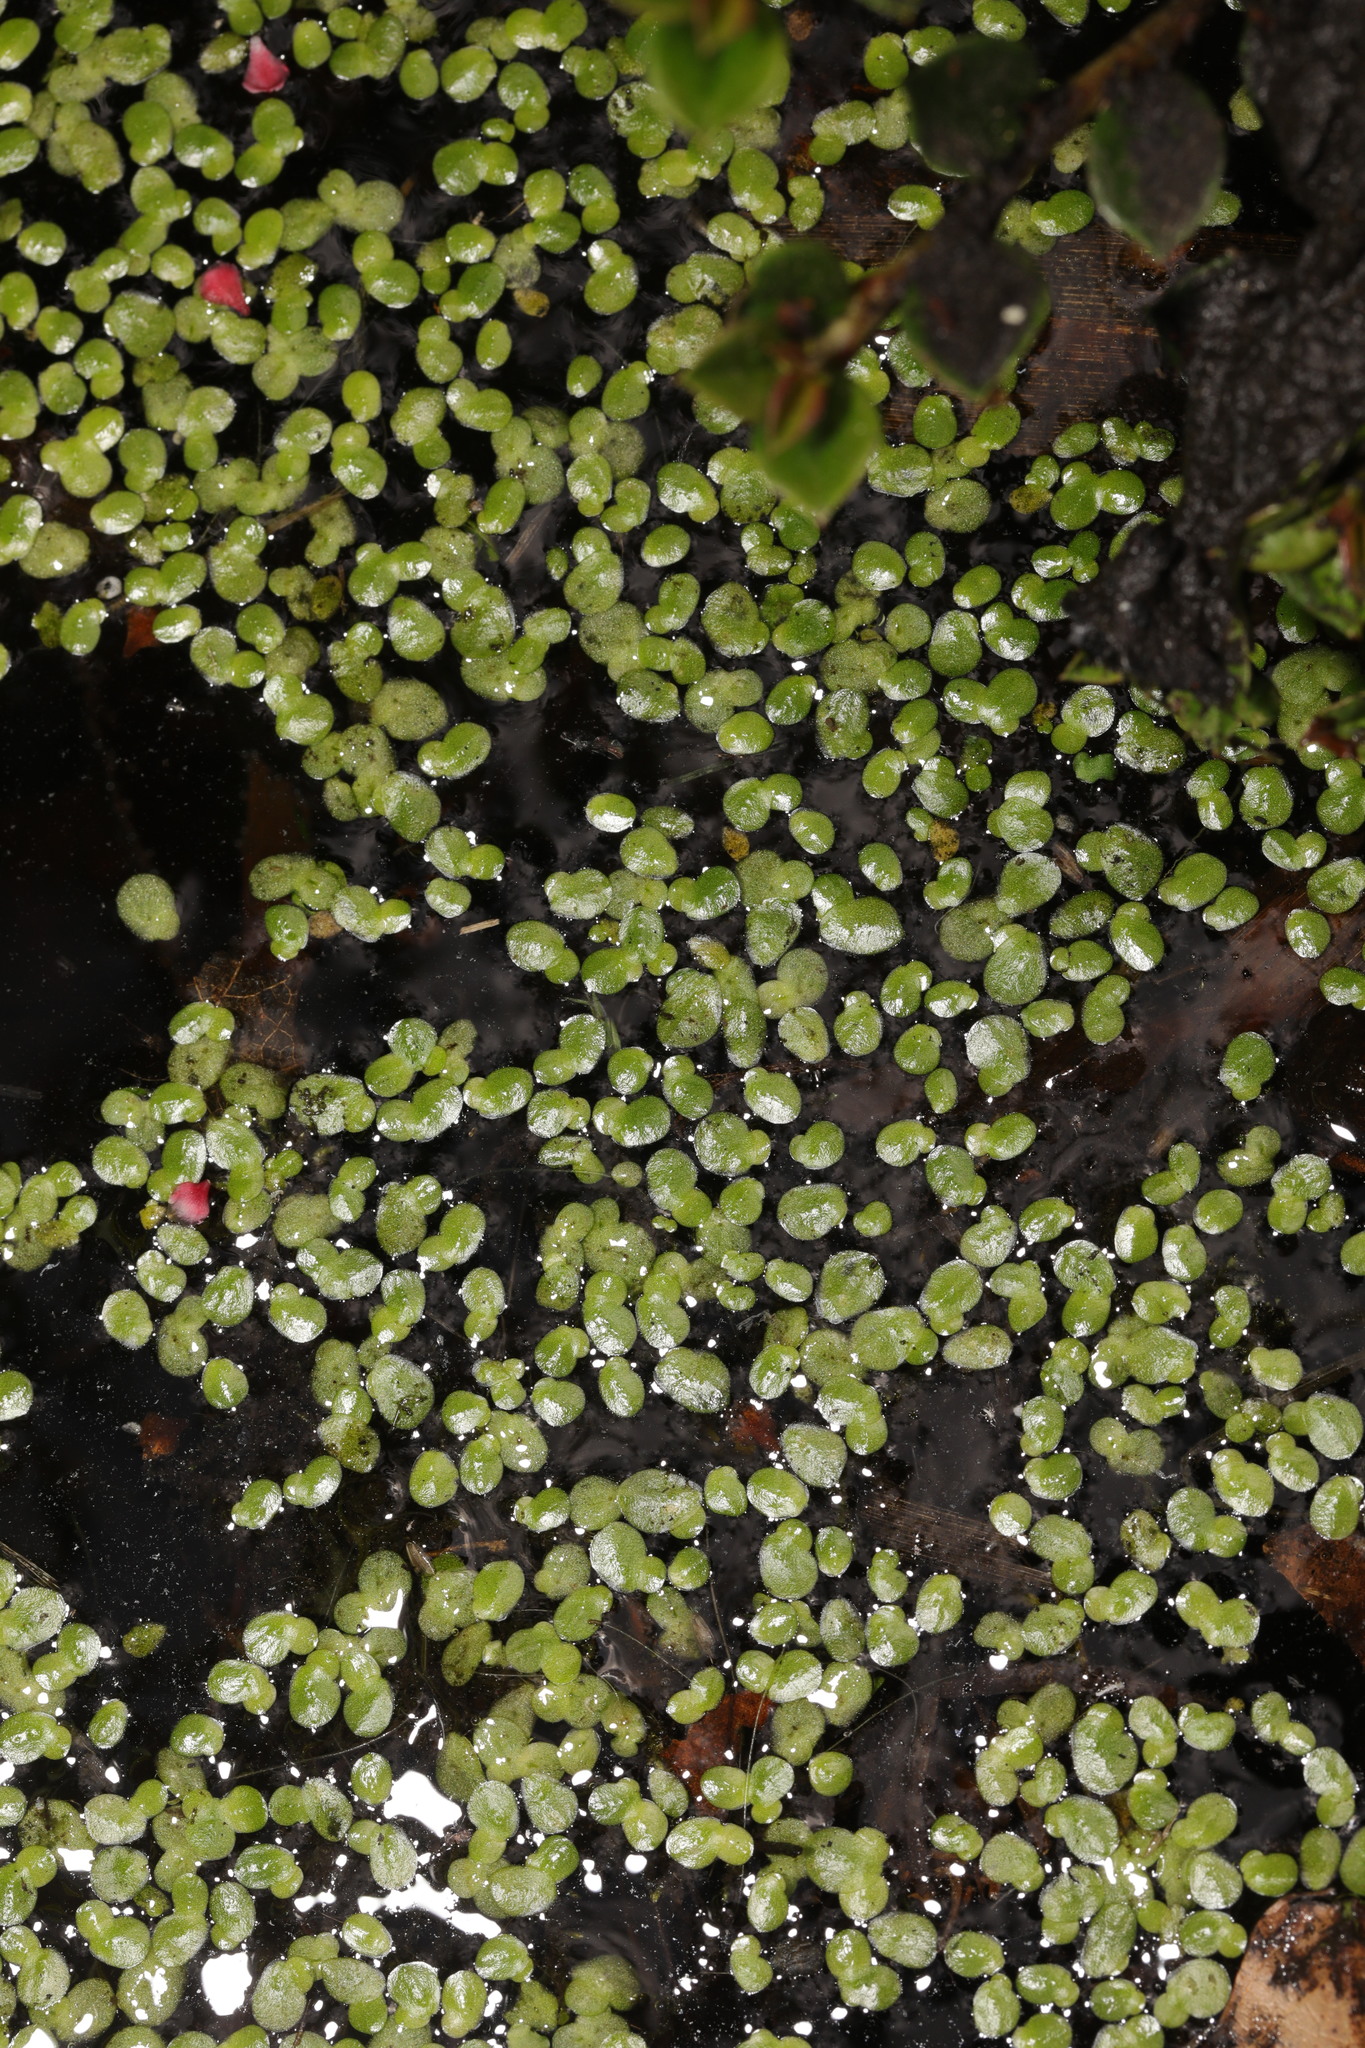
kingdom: Plantae
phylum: Tracheophyta
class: Liliopsida
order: Alismatales
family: Araceae
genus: Lemna
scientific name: Lemna minor
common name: Common duckweed
